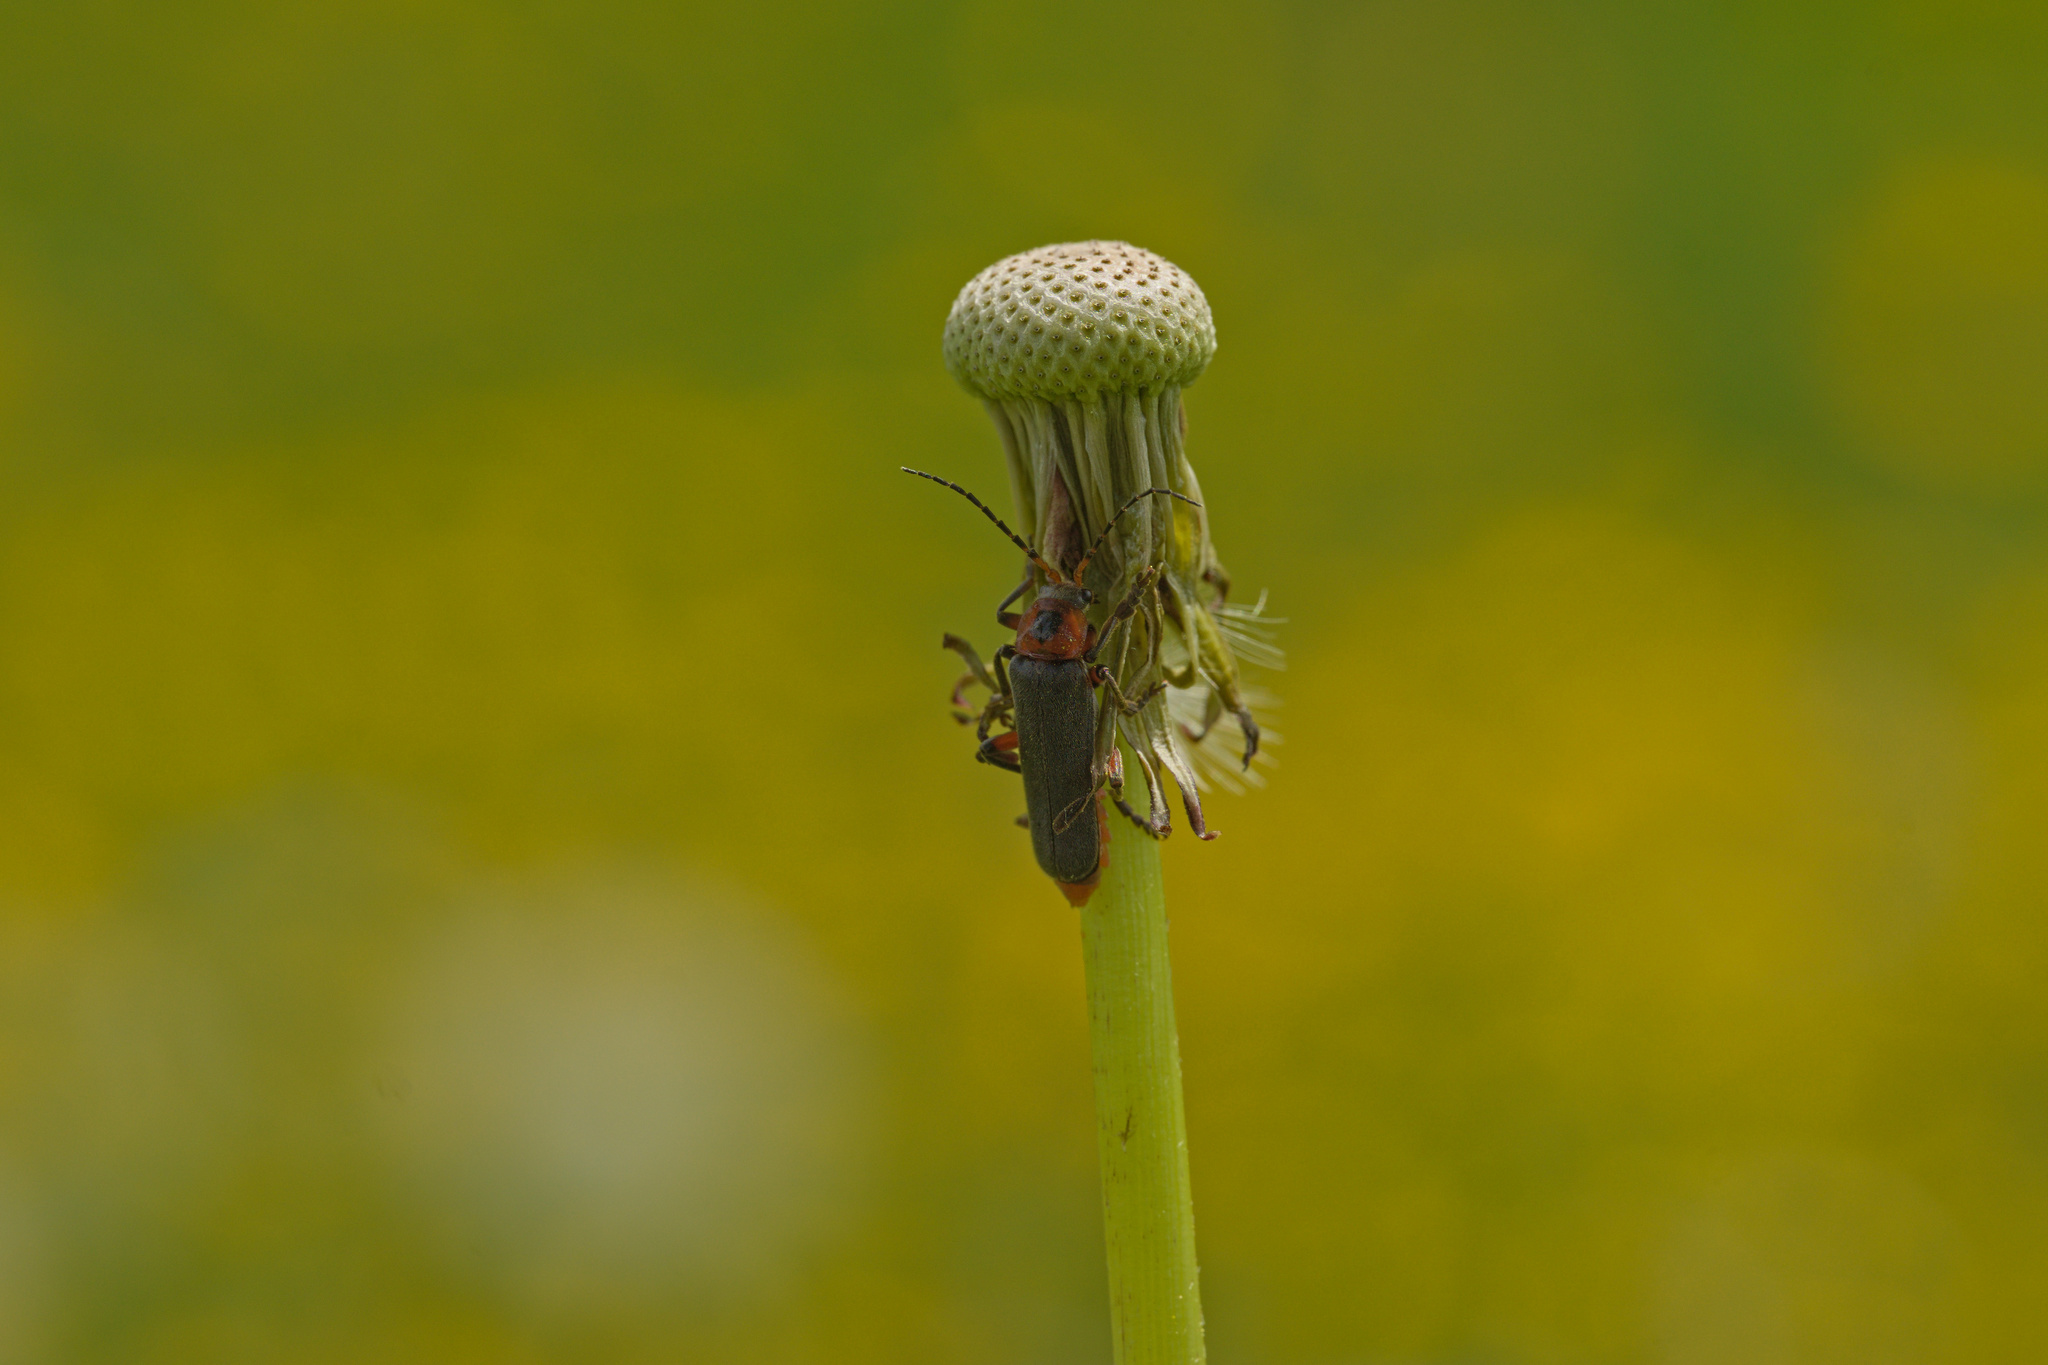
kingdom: Animalia
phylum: Arthropoda
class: Insecta
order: Coleoptera
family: Cantharidae
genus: Cantharis
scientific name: Cantharis rustica
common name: Soldier beetle
